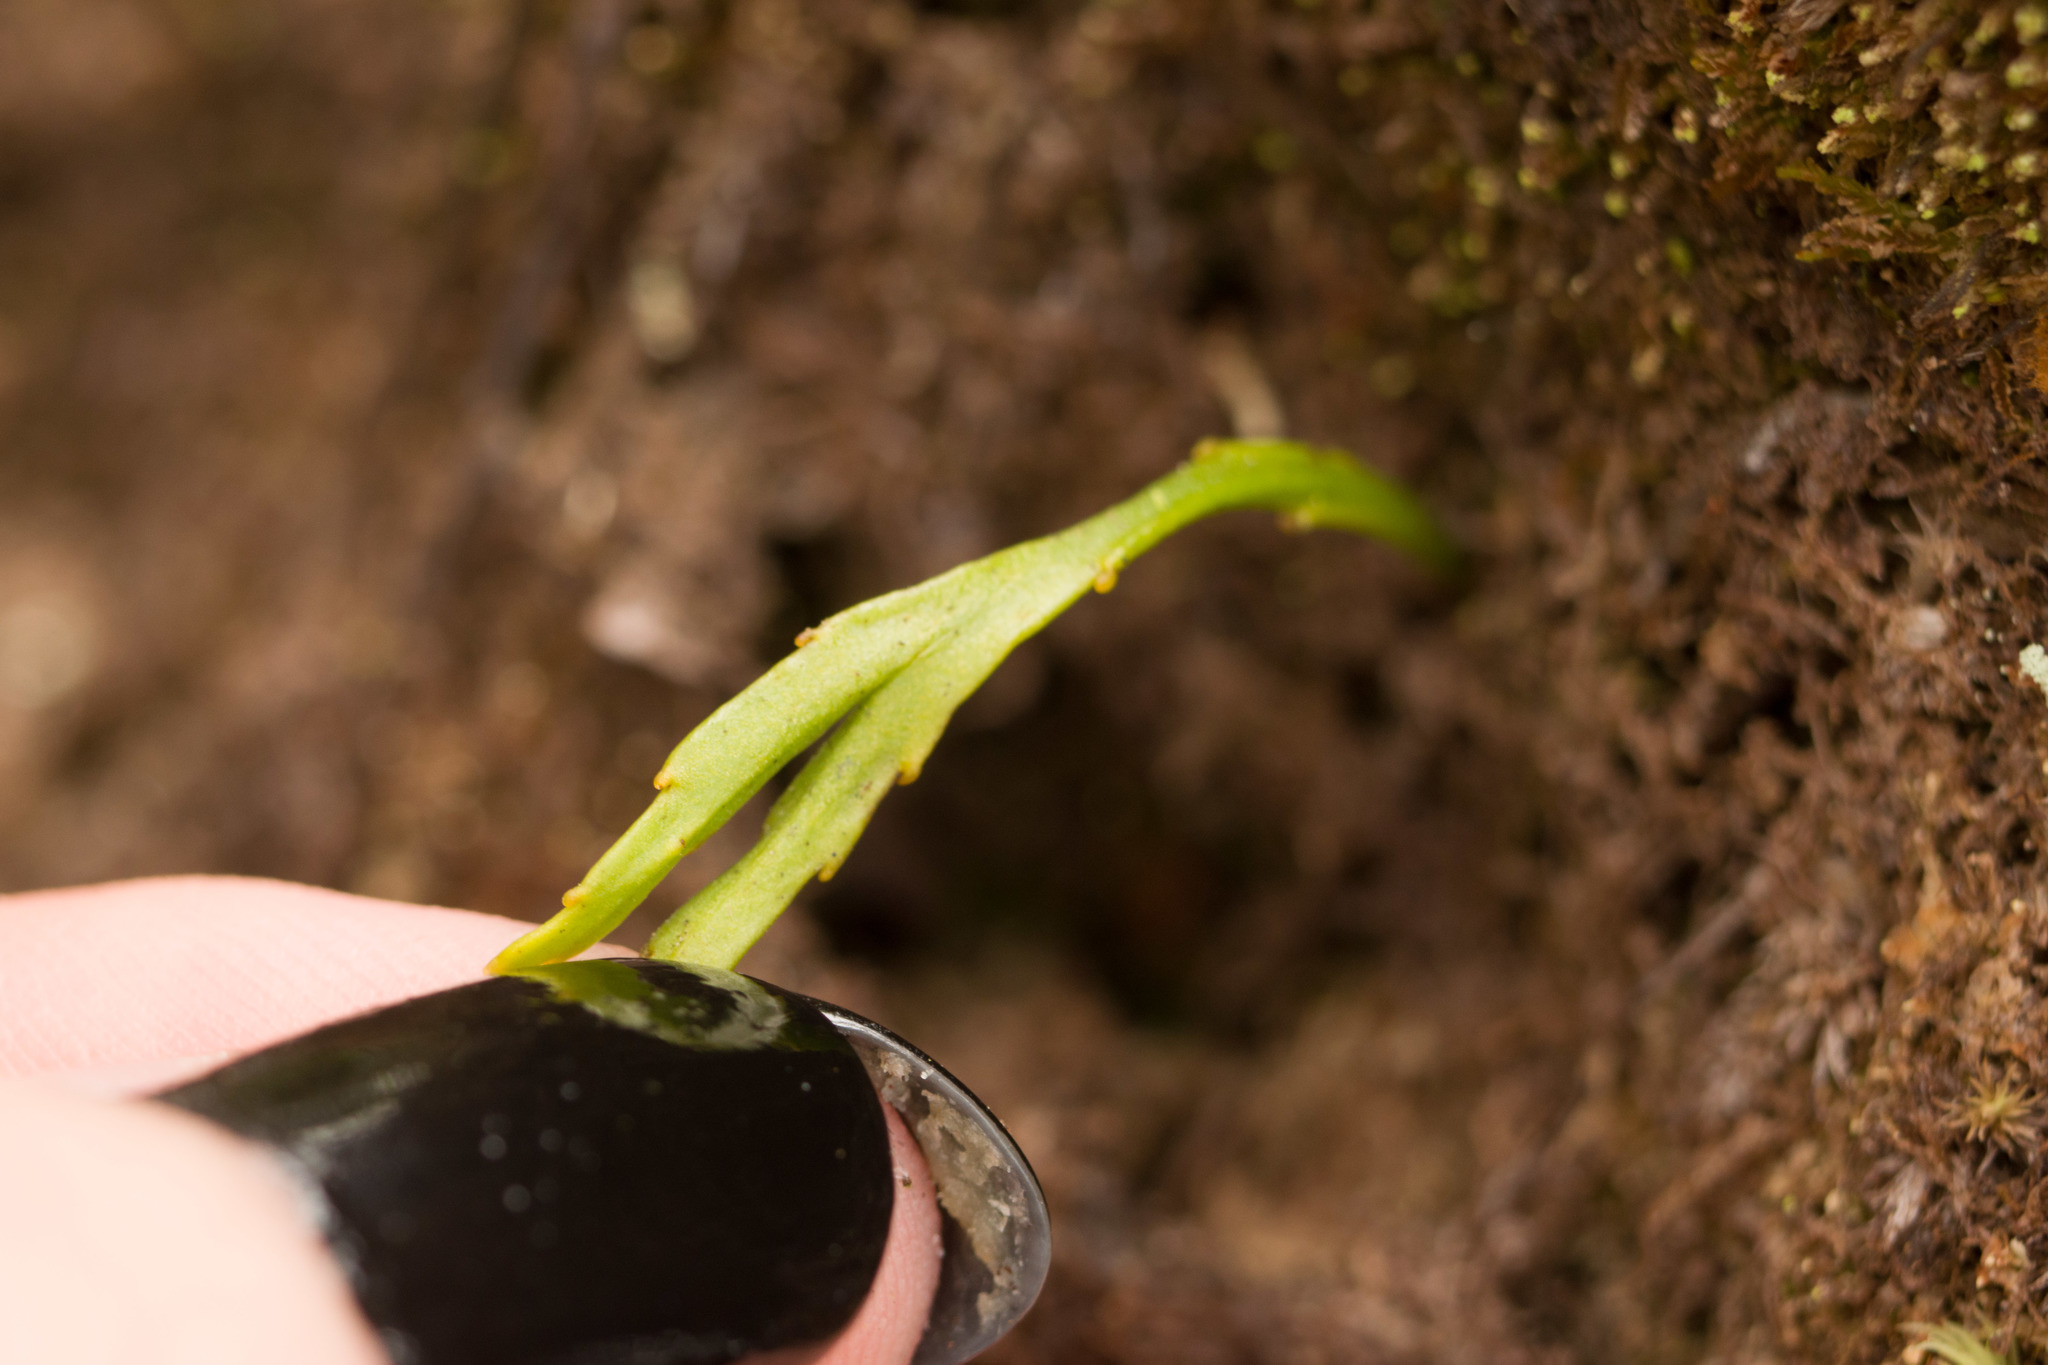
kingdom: Plantae
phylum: Tracheophyta
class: Polypodiopsida
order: Psilotales
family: Psilotaceae
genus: Psilotum
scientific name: Psilotum complanatum
